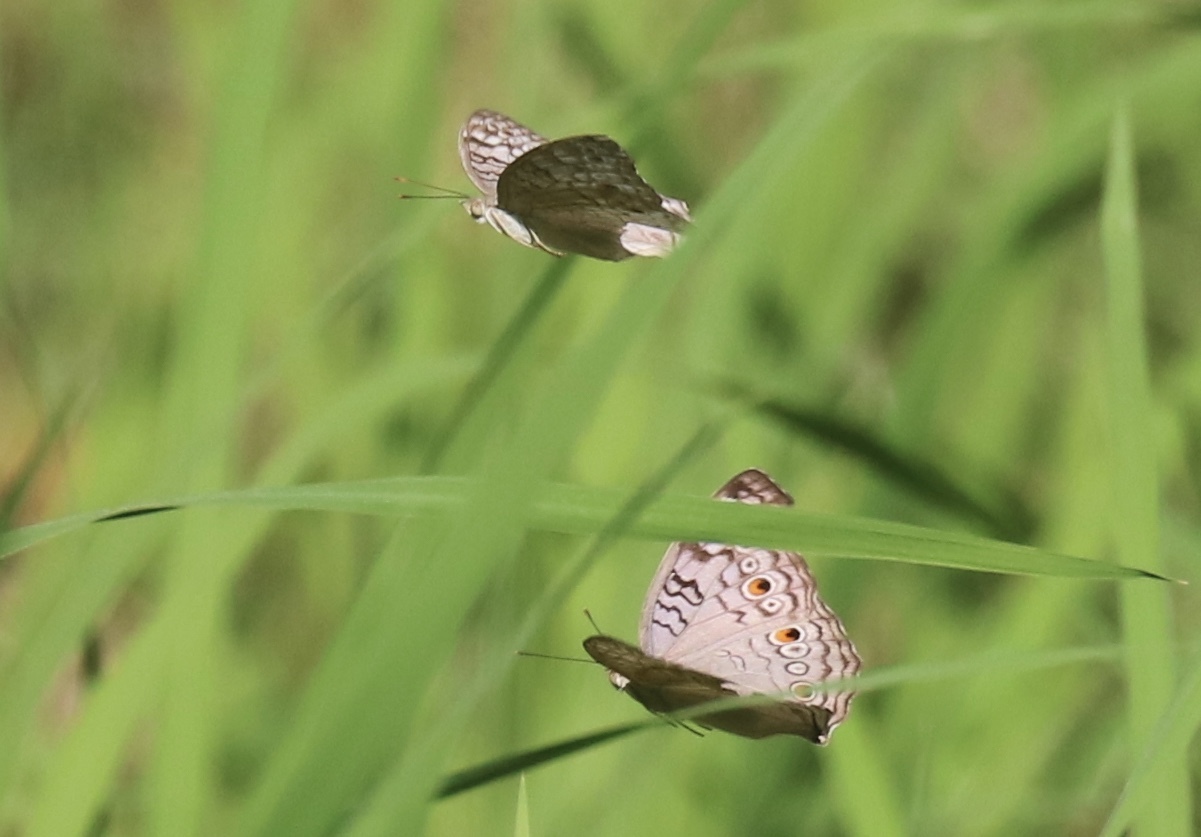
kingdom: Animalia
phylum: Arthropoda
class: Insecta
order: Lepidoptera
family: Nymphalidae
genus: Junonia
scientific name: Junonia atlites
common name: Grey pansy
